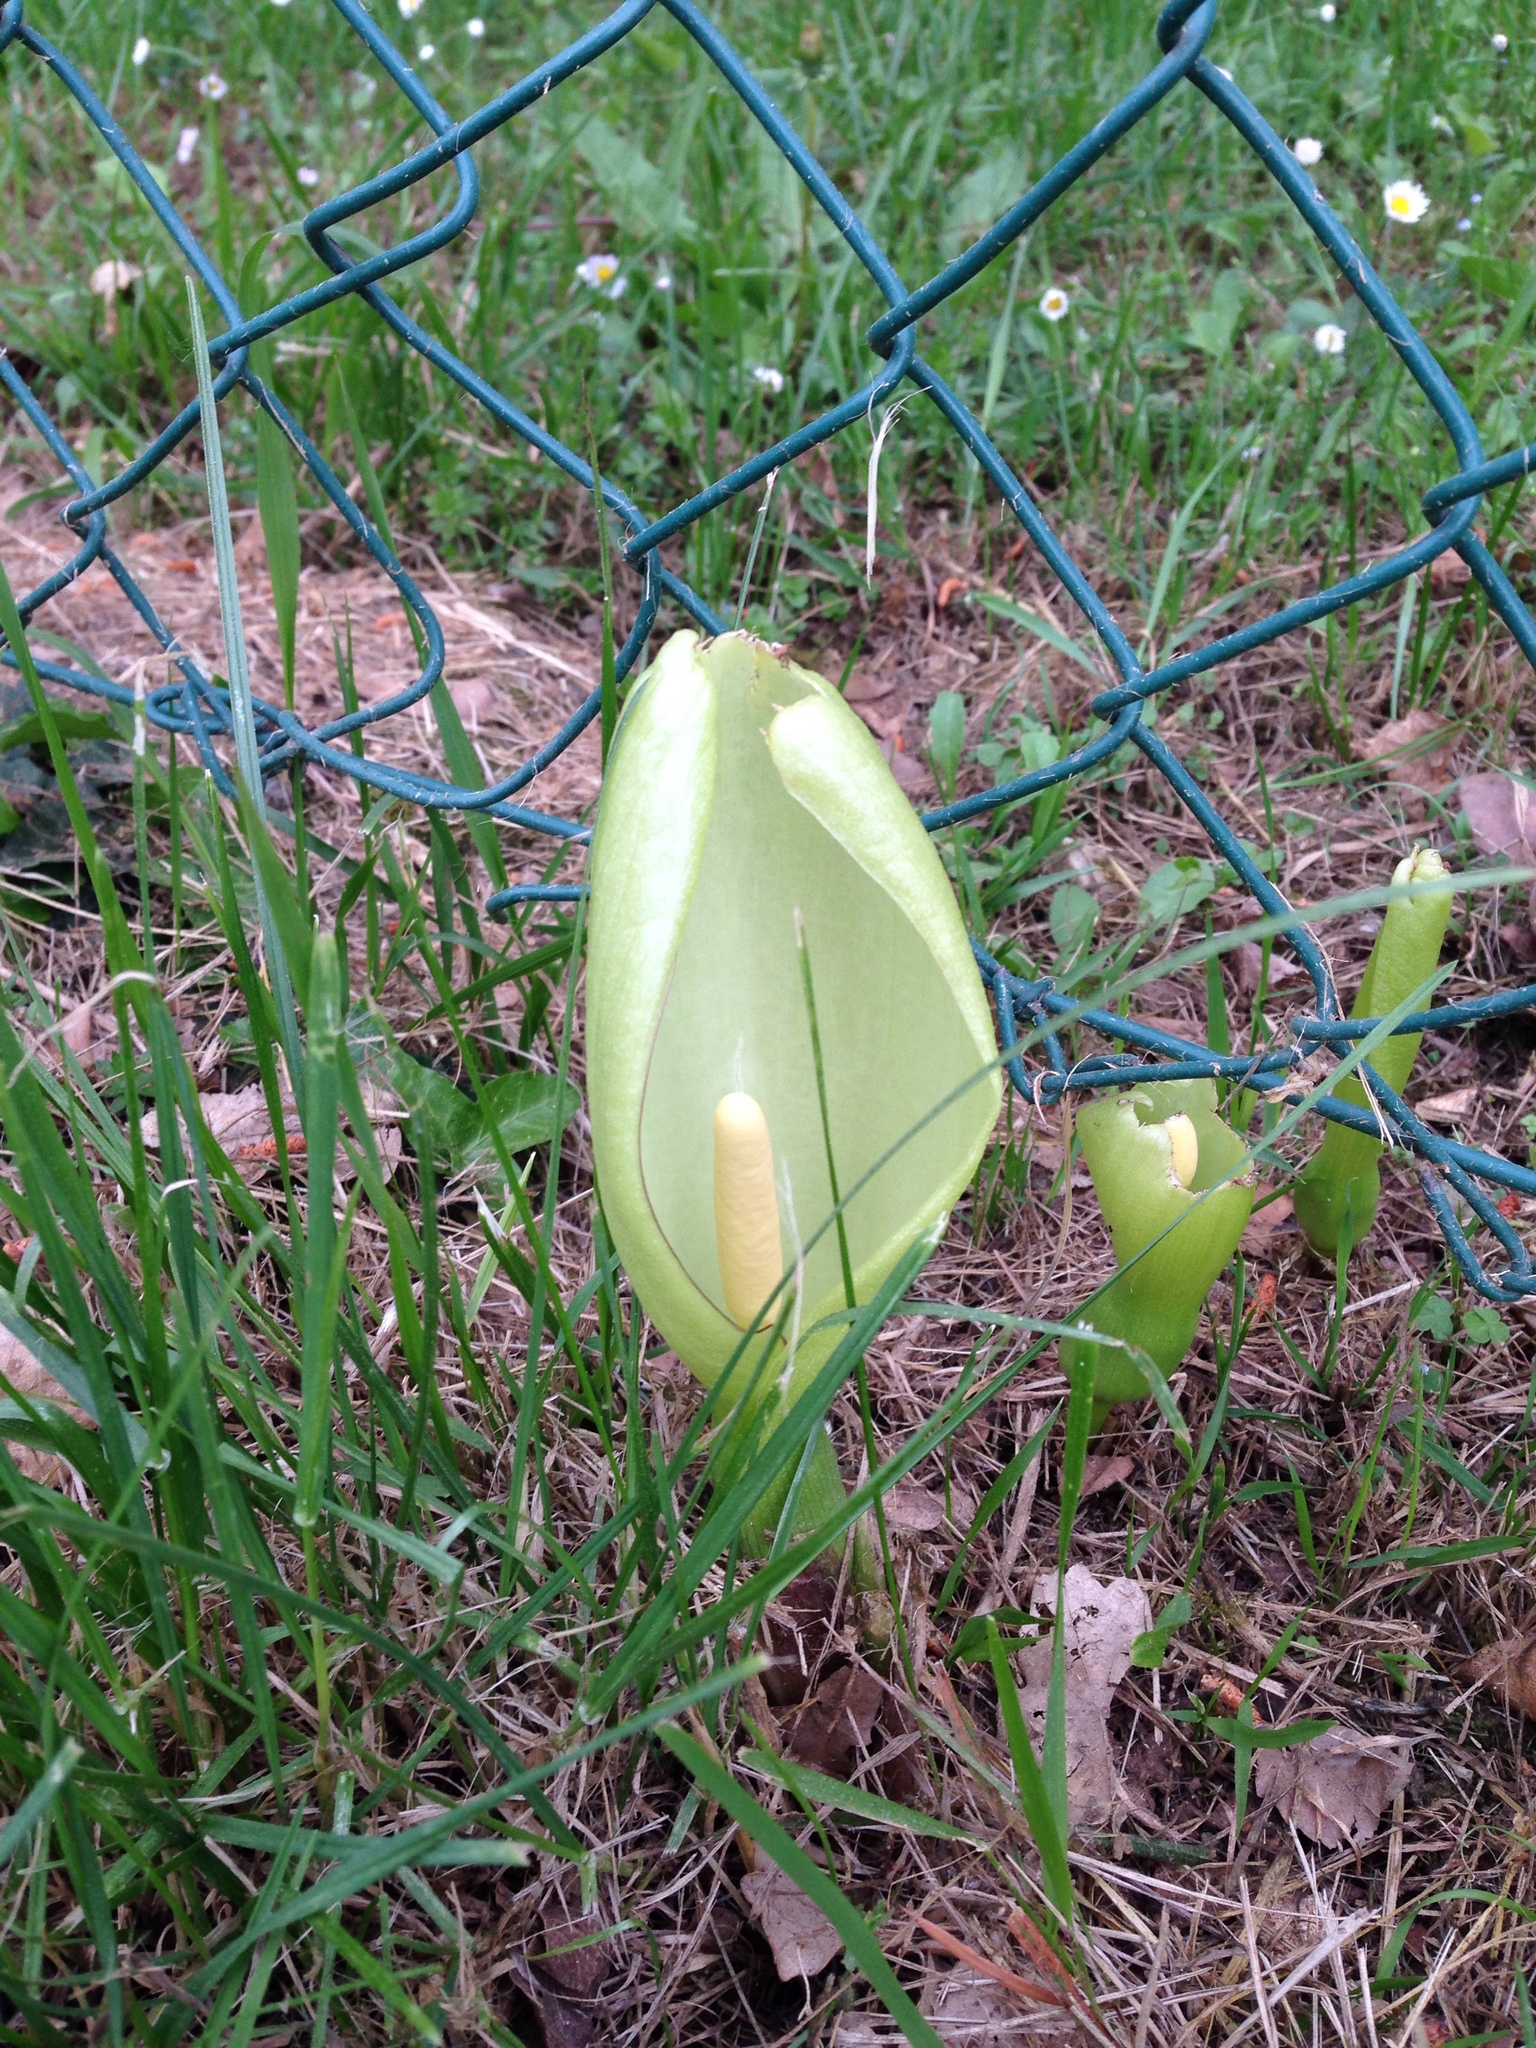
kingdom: Plantae
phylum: Tracheophyta
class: Liliopsida
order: Alismatales
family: Araceae
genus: Arum
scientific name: Arum italicum
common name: Italian lords-and-ladies
